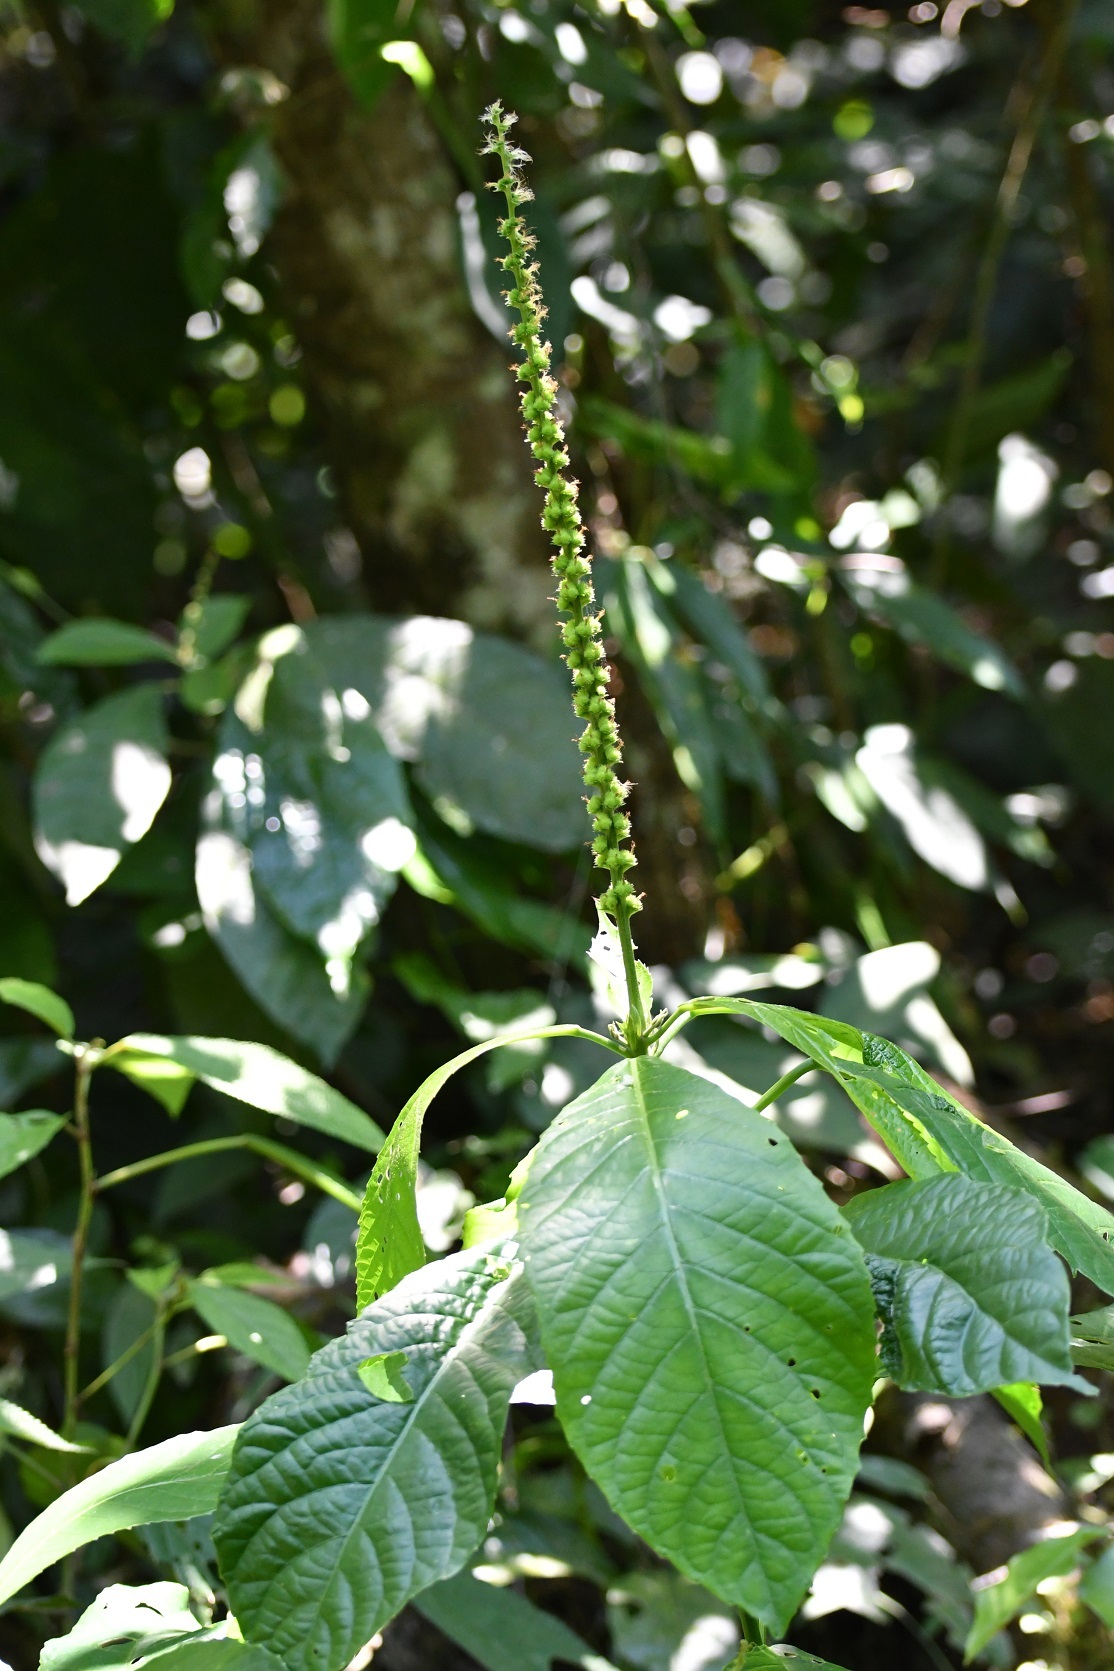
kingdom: Plantae
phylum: Tracheophyta
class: Magnoliopsida
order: Malpighiales
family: Euphorbiaceae
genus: Acalypha
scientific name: Acalypha skutchii
